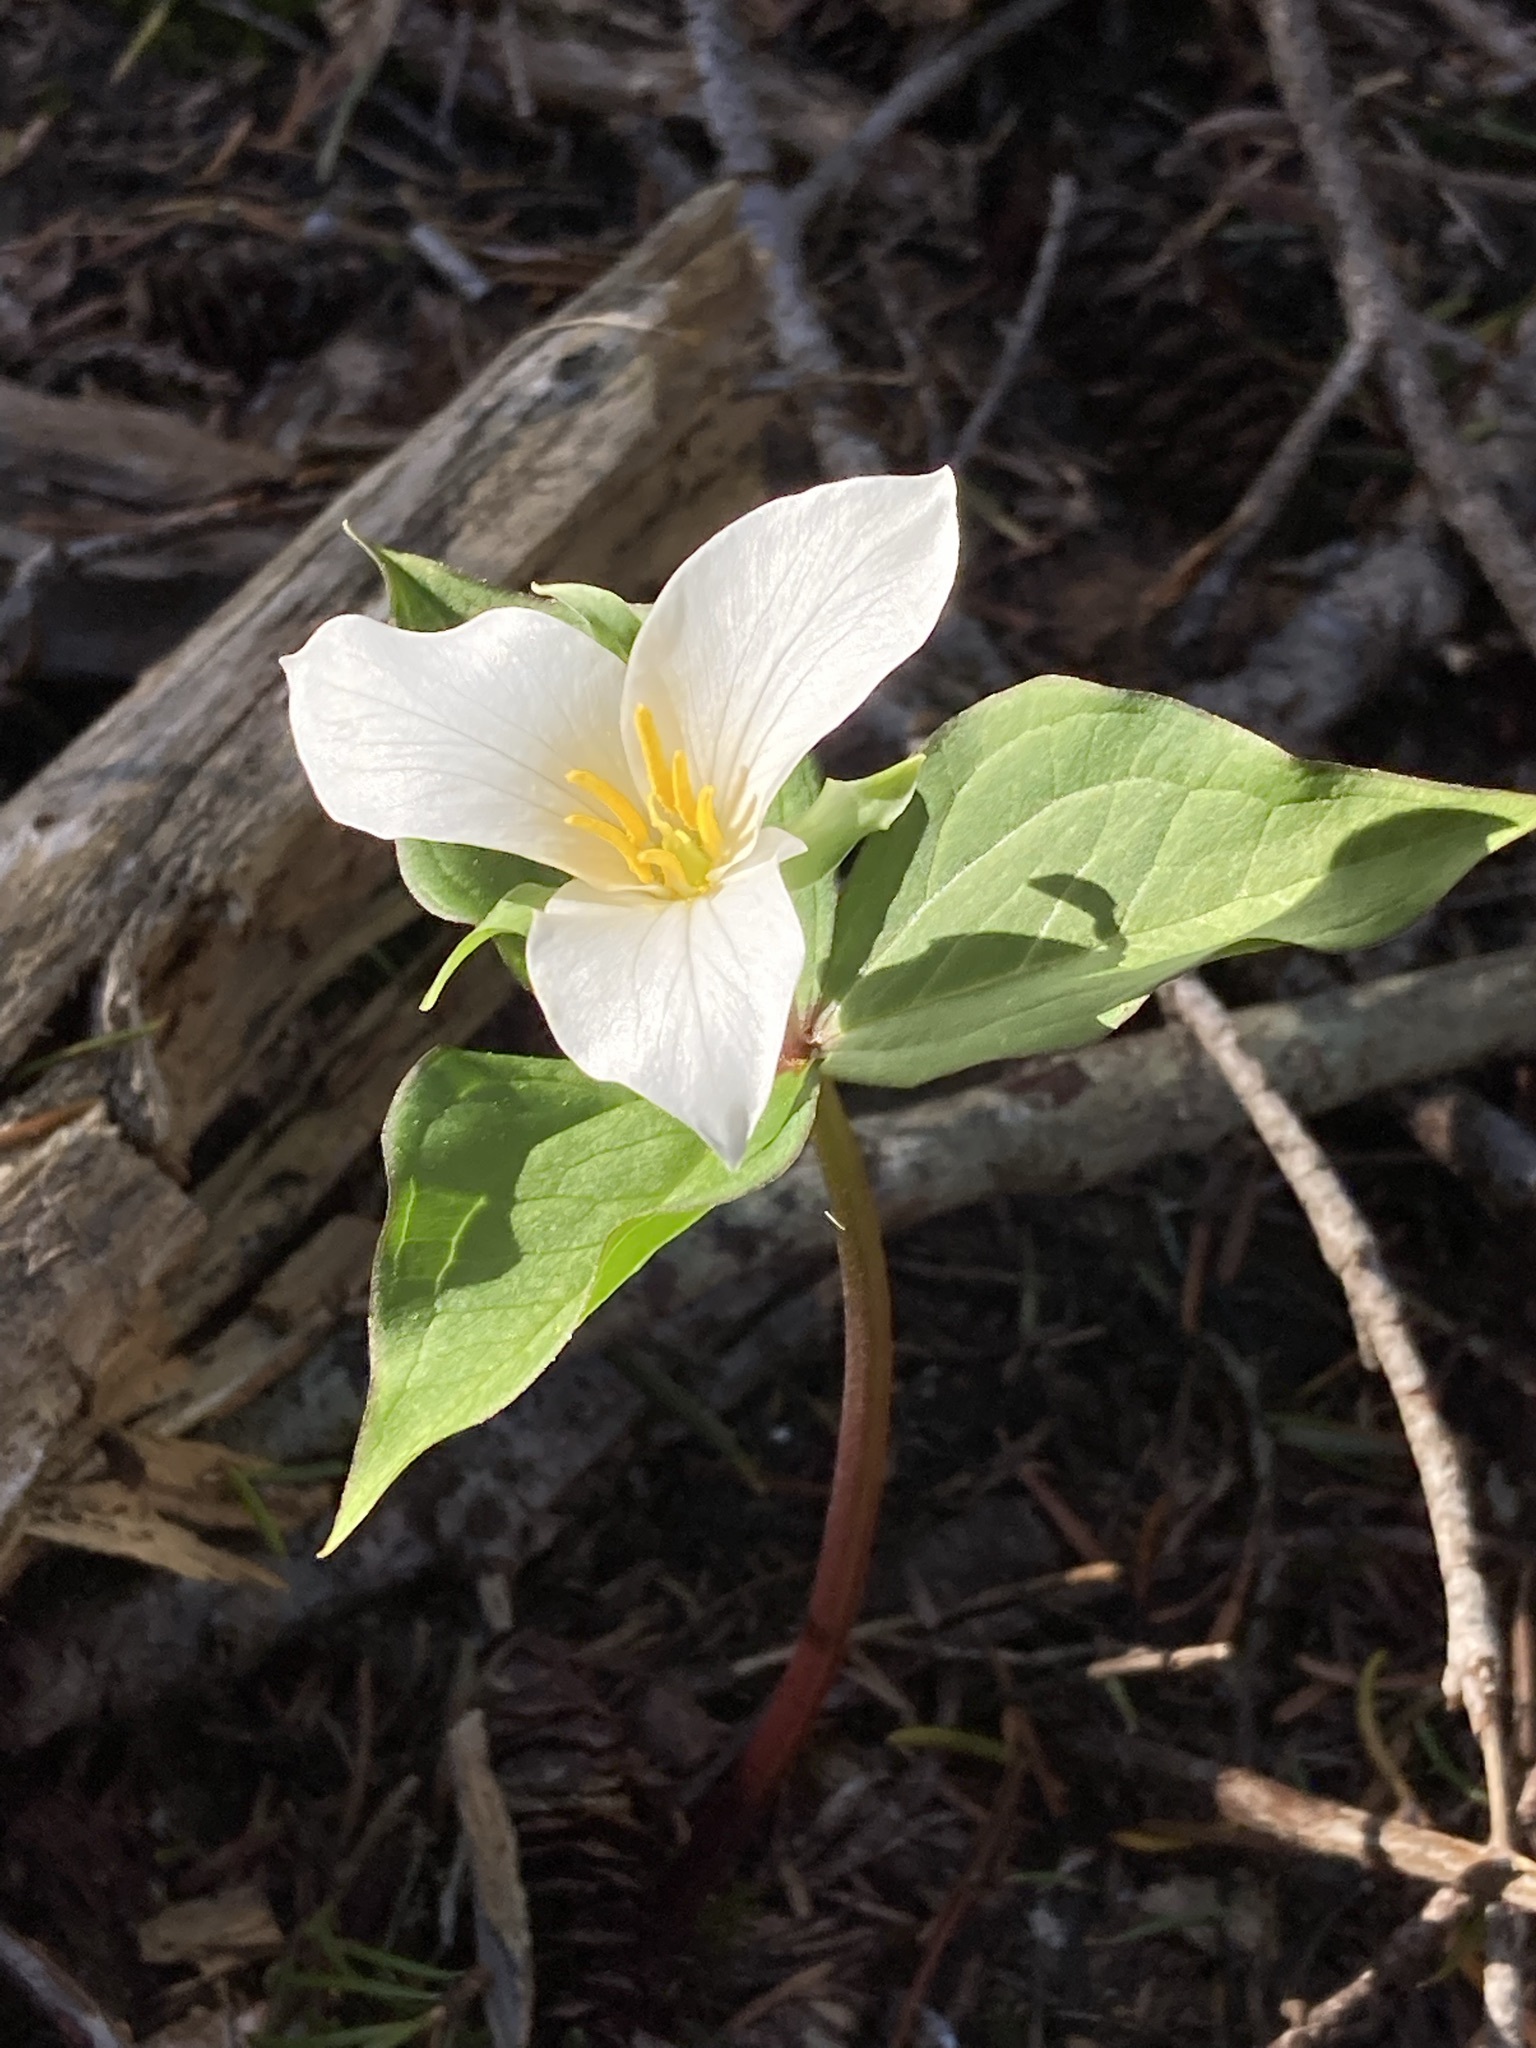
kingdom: Plantae
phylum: Tracheophyta
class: Liliopsida
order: Liliales
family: Melanthiaceae
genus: Trillium
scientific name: Trillium ovatum
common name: Pacific trillium
